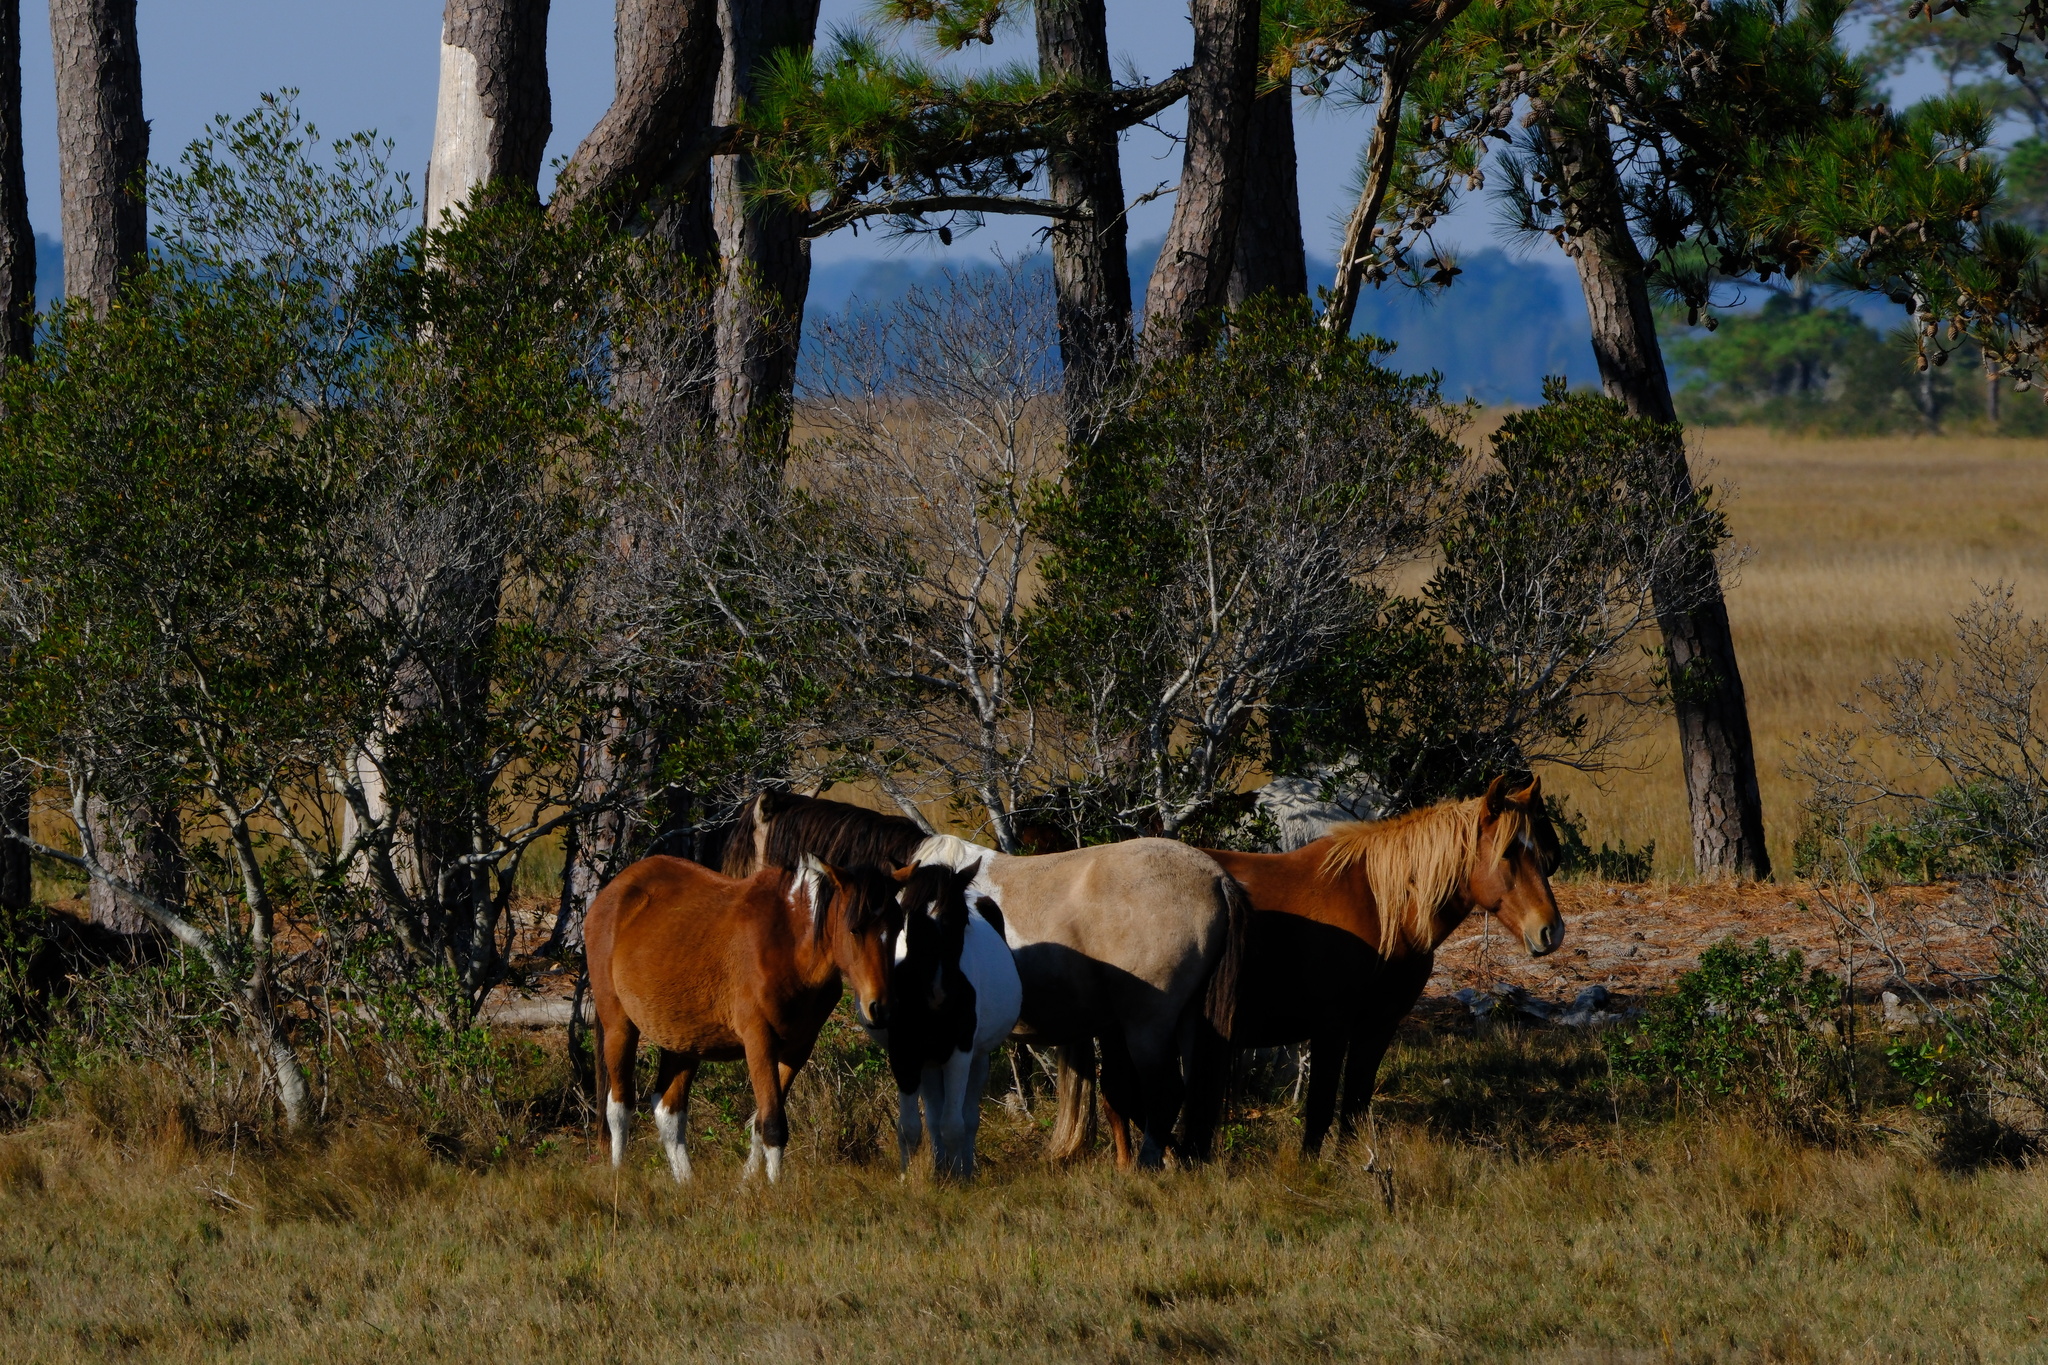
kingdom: Animalia
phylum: Chordata
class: Mammalia
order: Perissodactyla
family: Equidae
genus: Equus
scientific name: Equus caballus
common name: Horse
